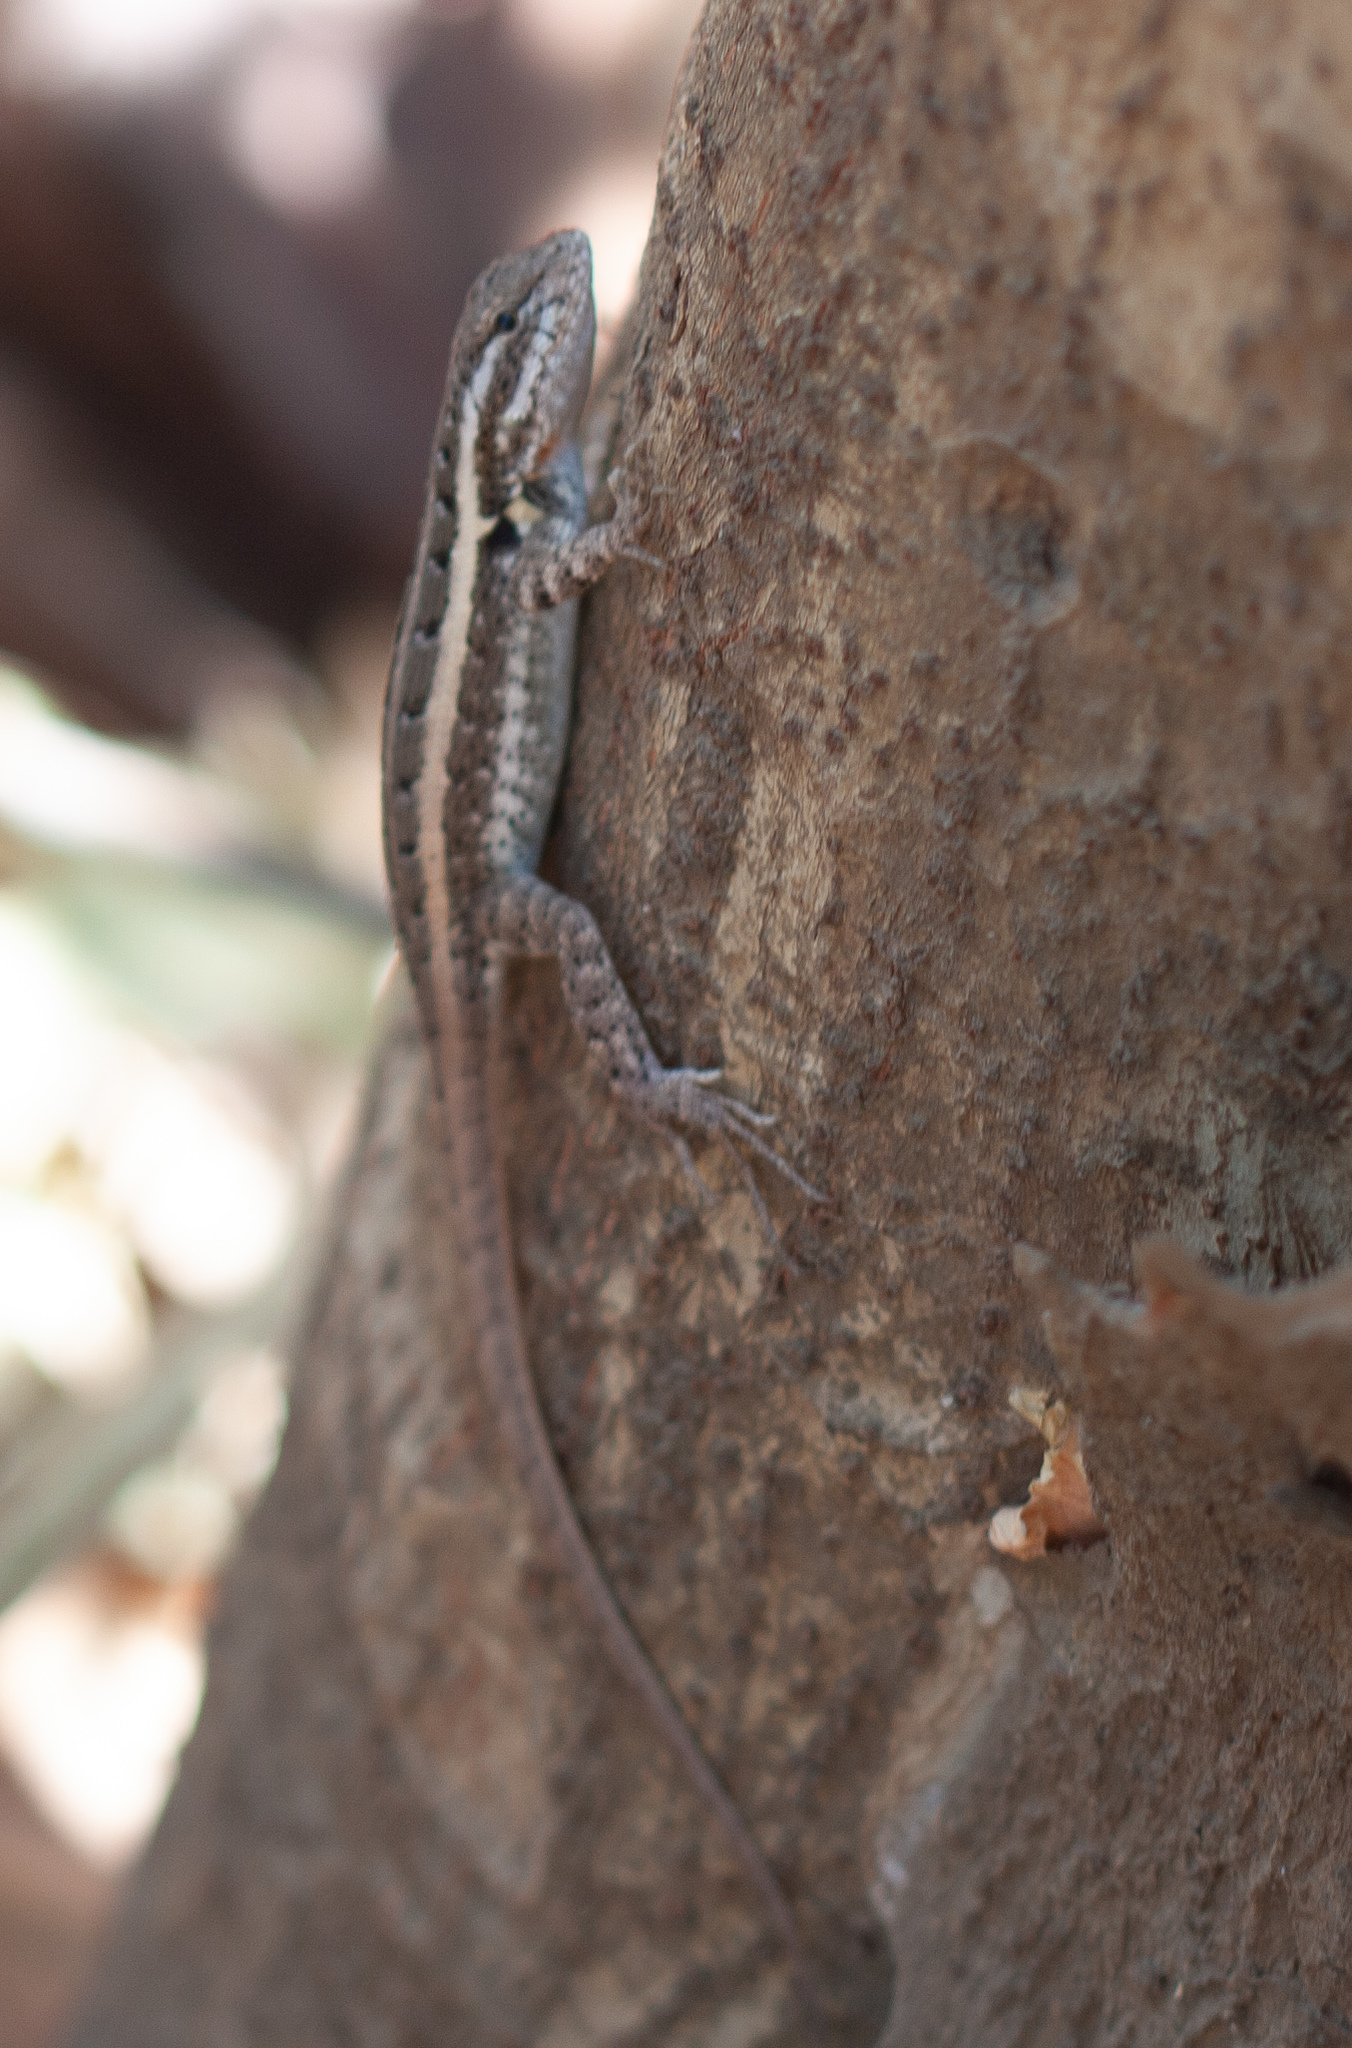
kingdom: Animalia
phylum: Chordata
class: Squamata
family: Phrynosomatidae
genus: Sceloporus
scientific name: Sceloporus variabilis
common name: Rosebelly lizard
